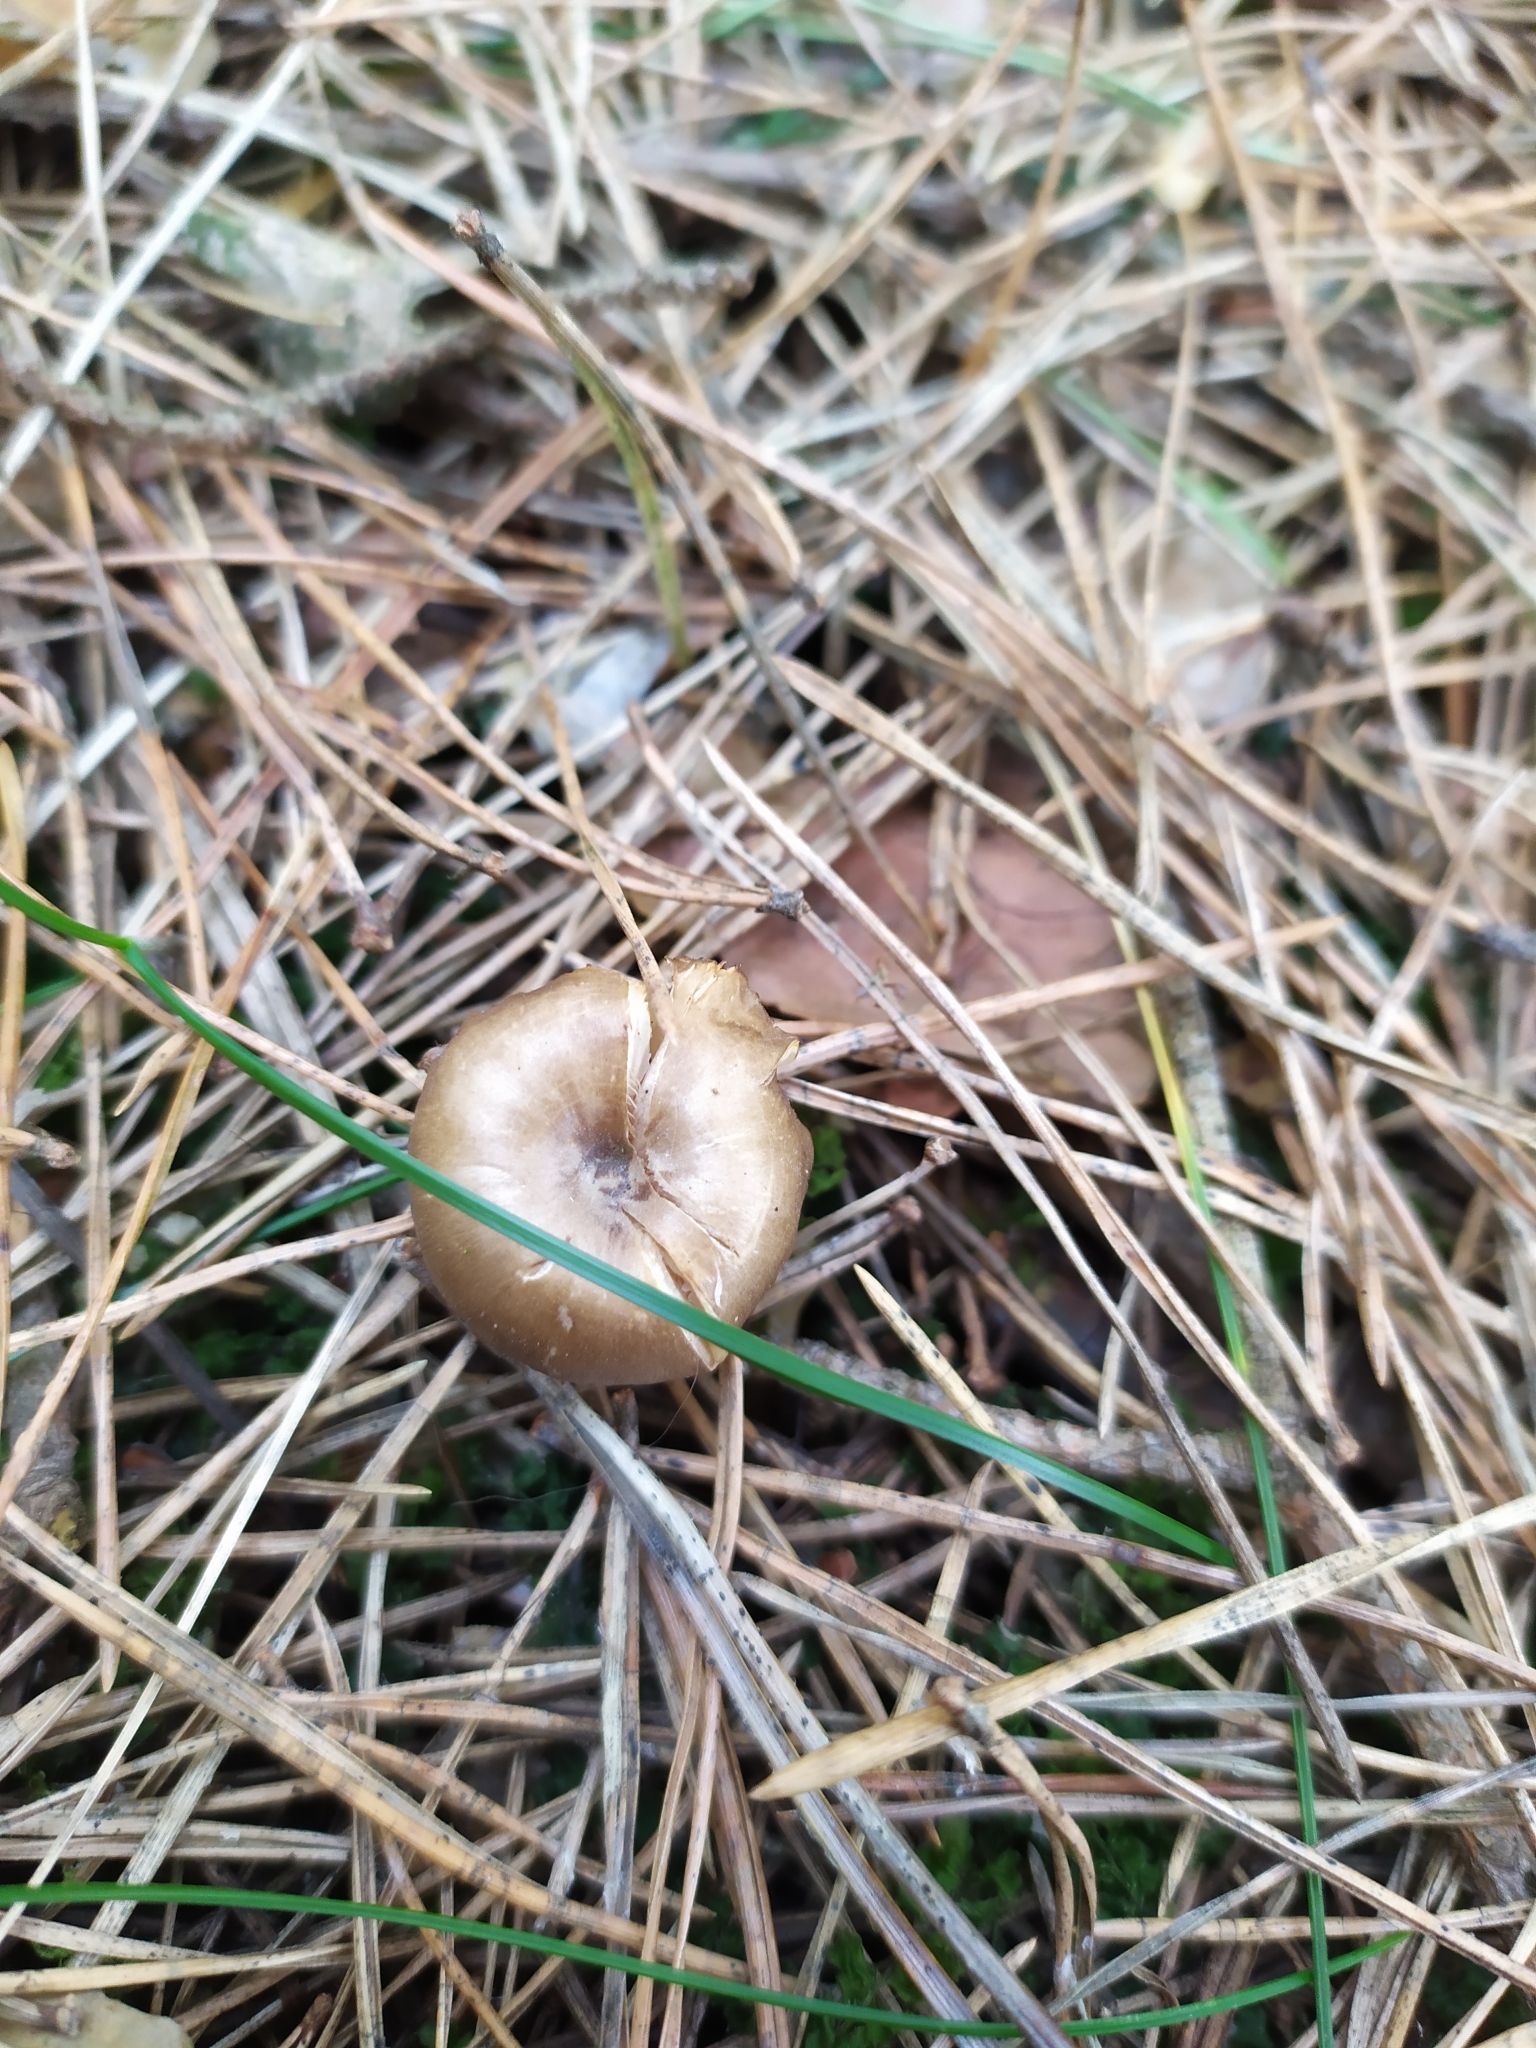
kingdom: Fungi
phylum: Basidiomycota
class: Agaricomycetes
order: Agaricales
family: Tricholomataceae
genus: Rhizocybe
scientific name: Rhizocybe pruinosa
